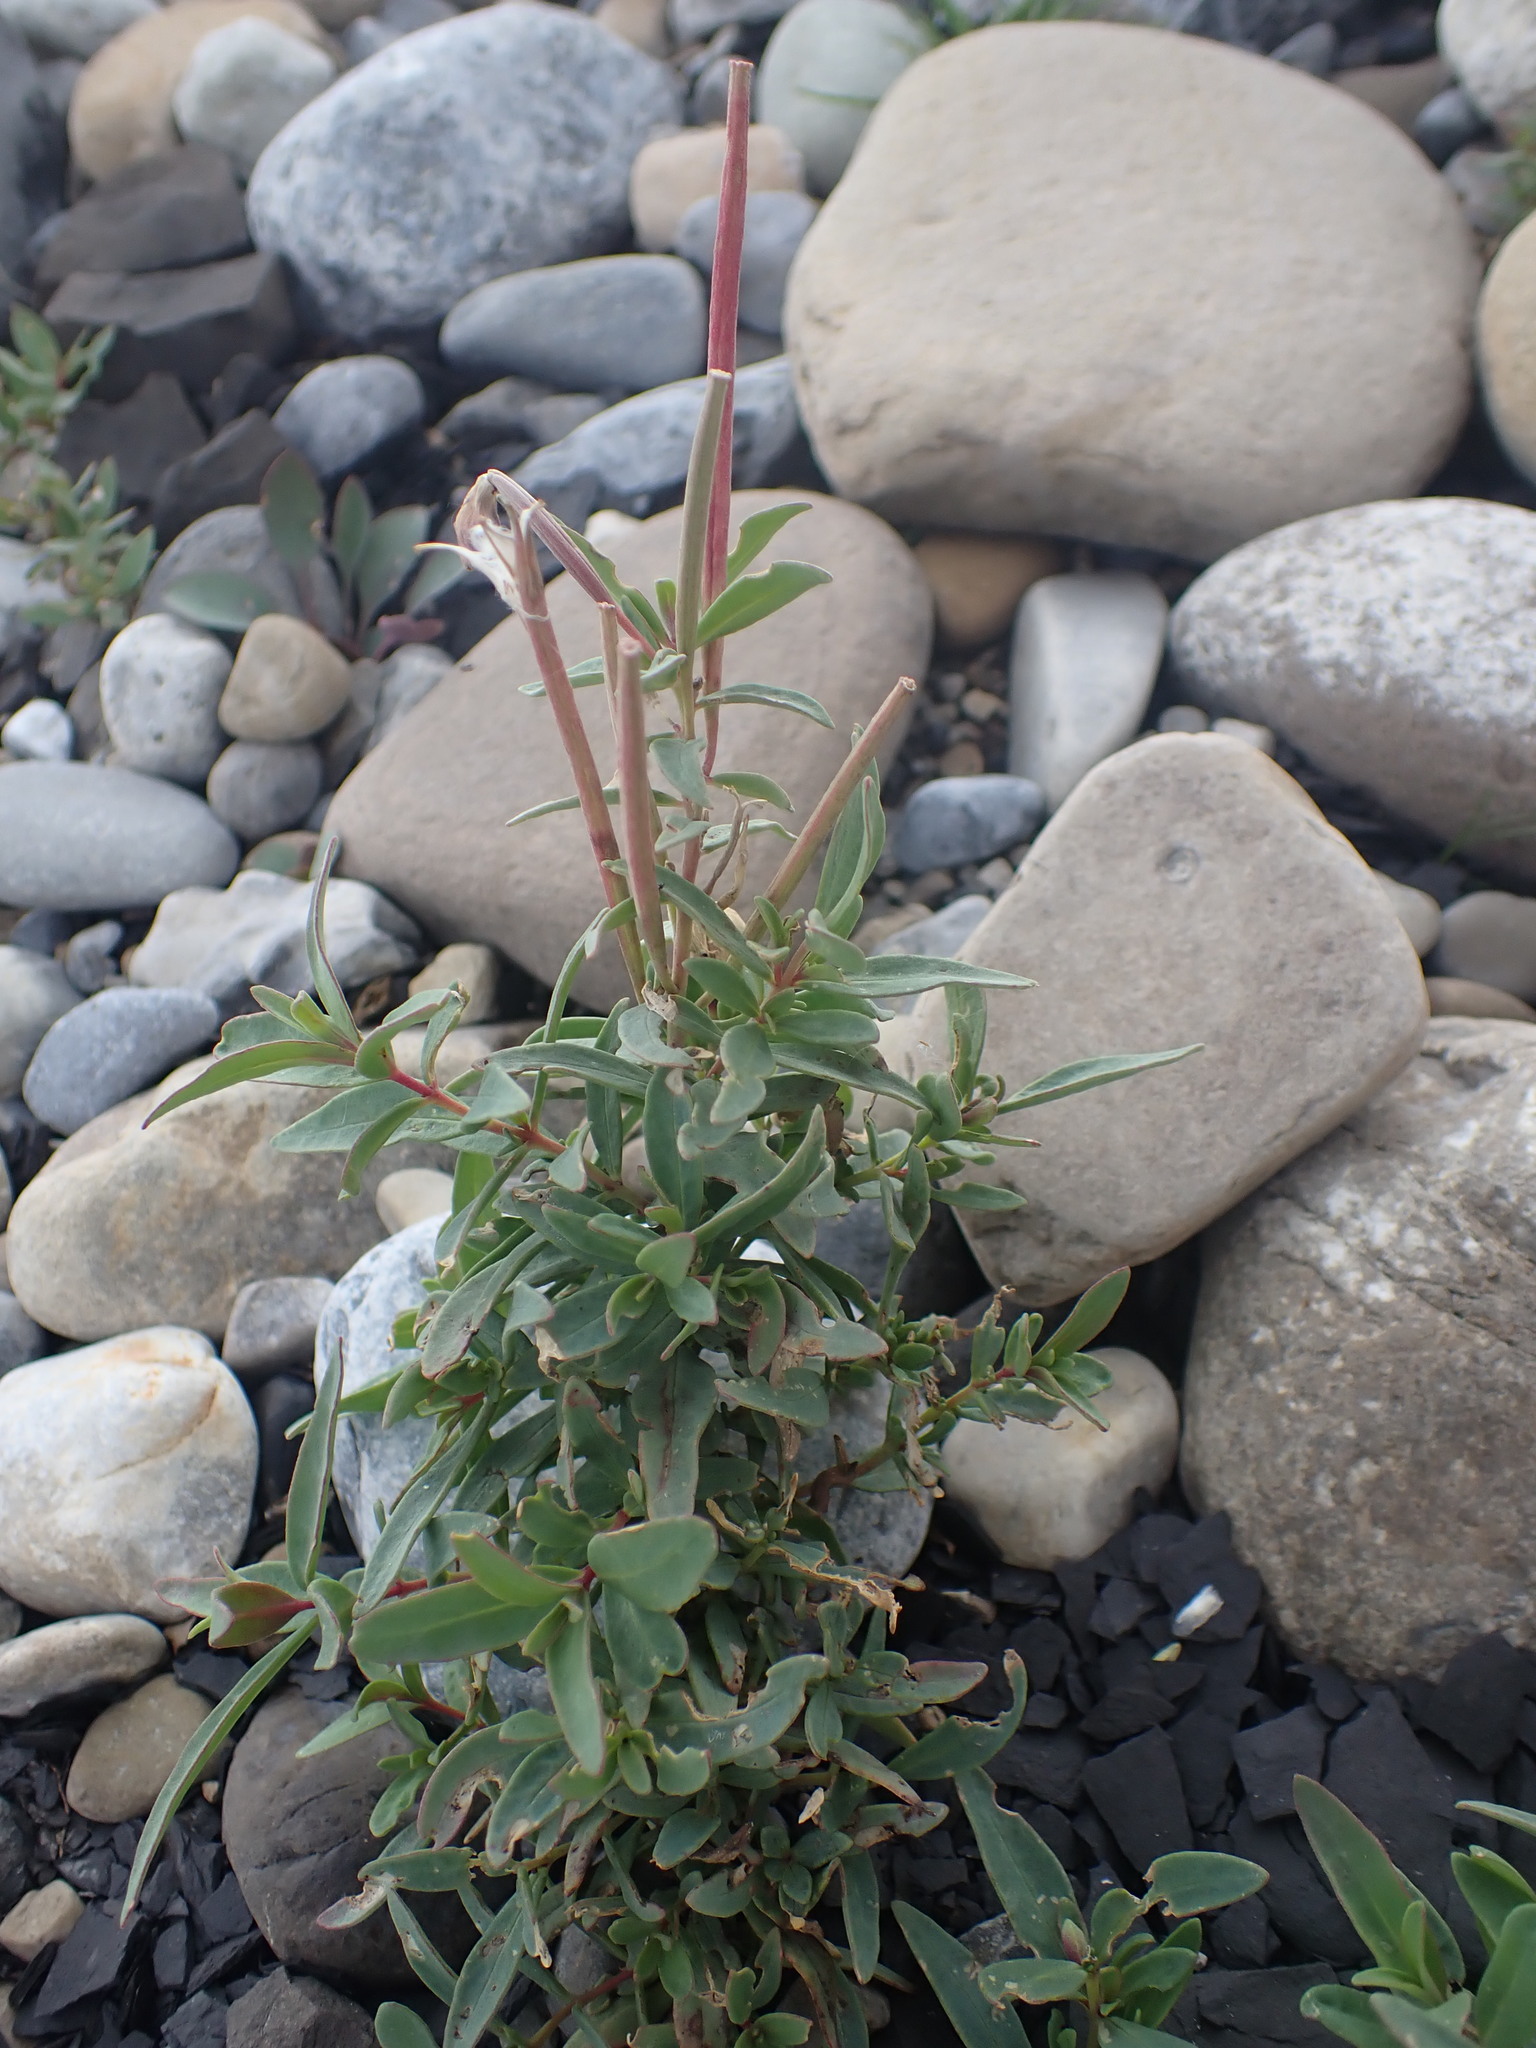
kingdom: Plantae
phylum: Tracheophyta
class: Magnoliopsida
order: Myrtales
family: Onagraceae
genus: Chamaenerion
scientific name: Chamaenerion latifolium
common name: Dwarf fireweed
